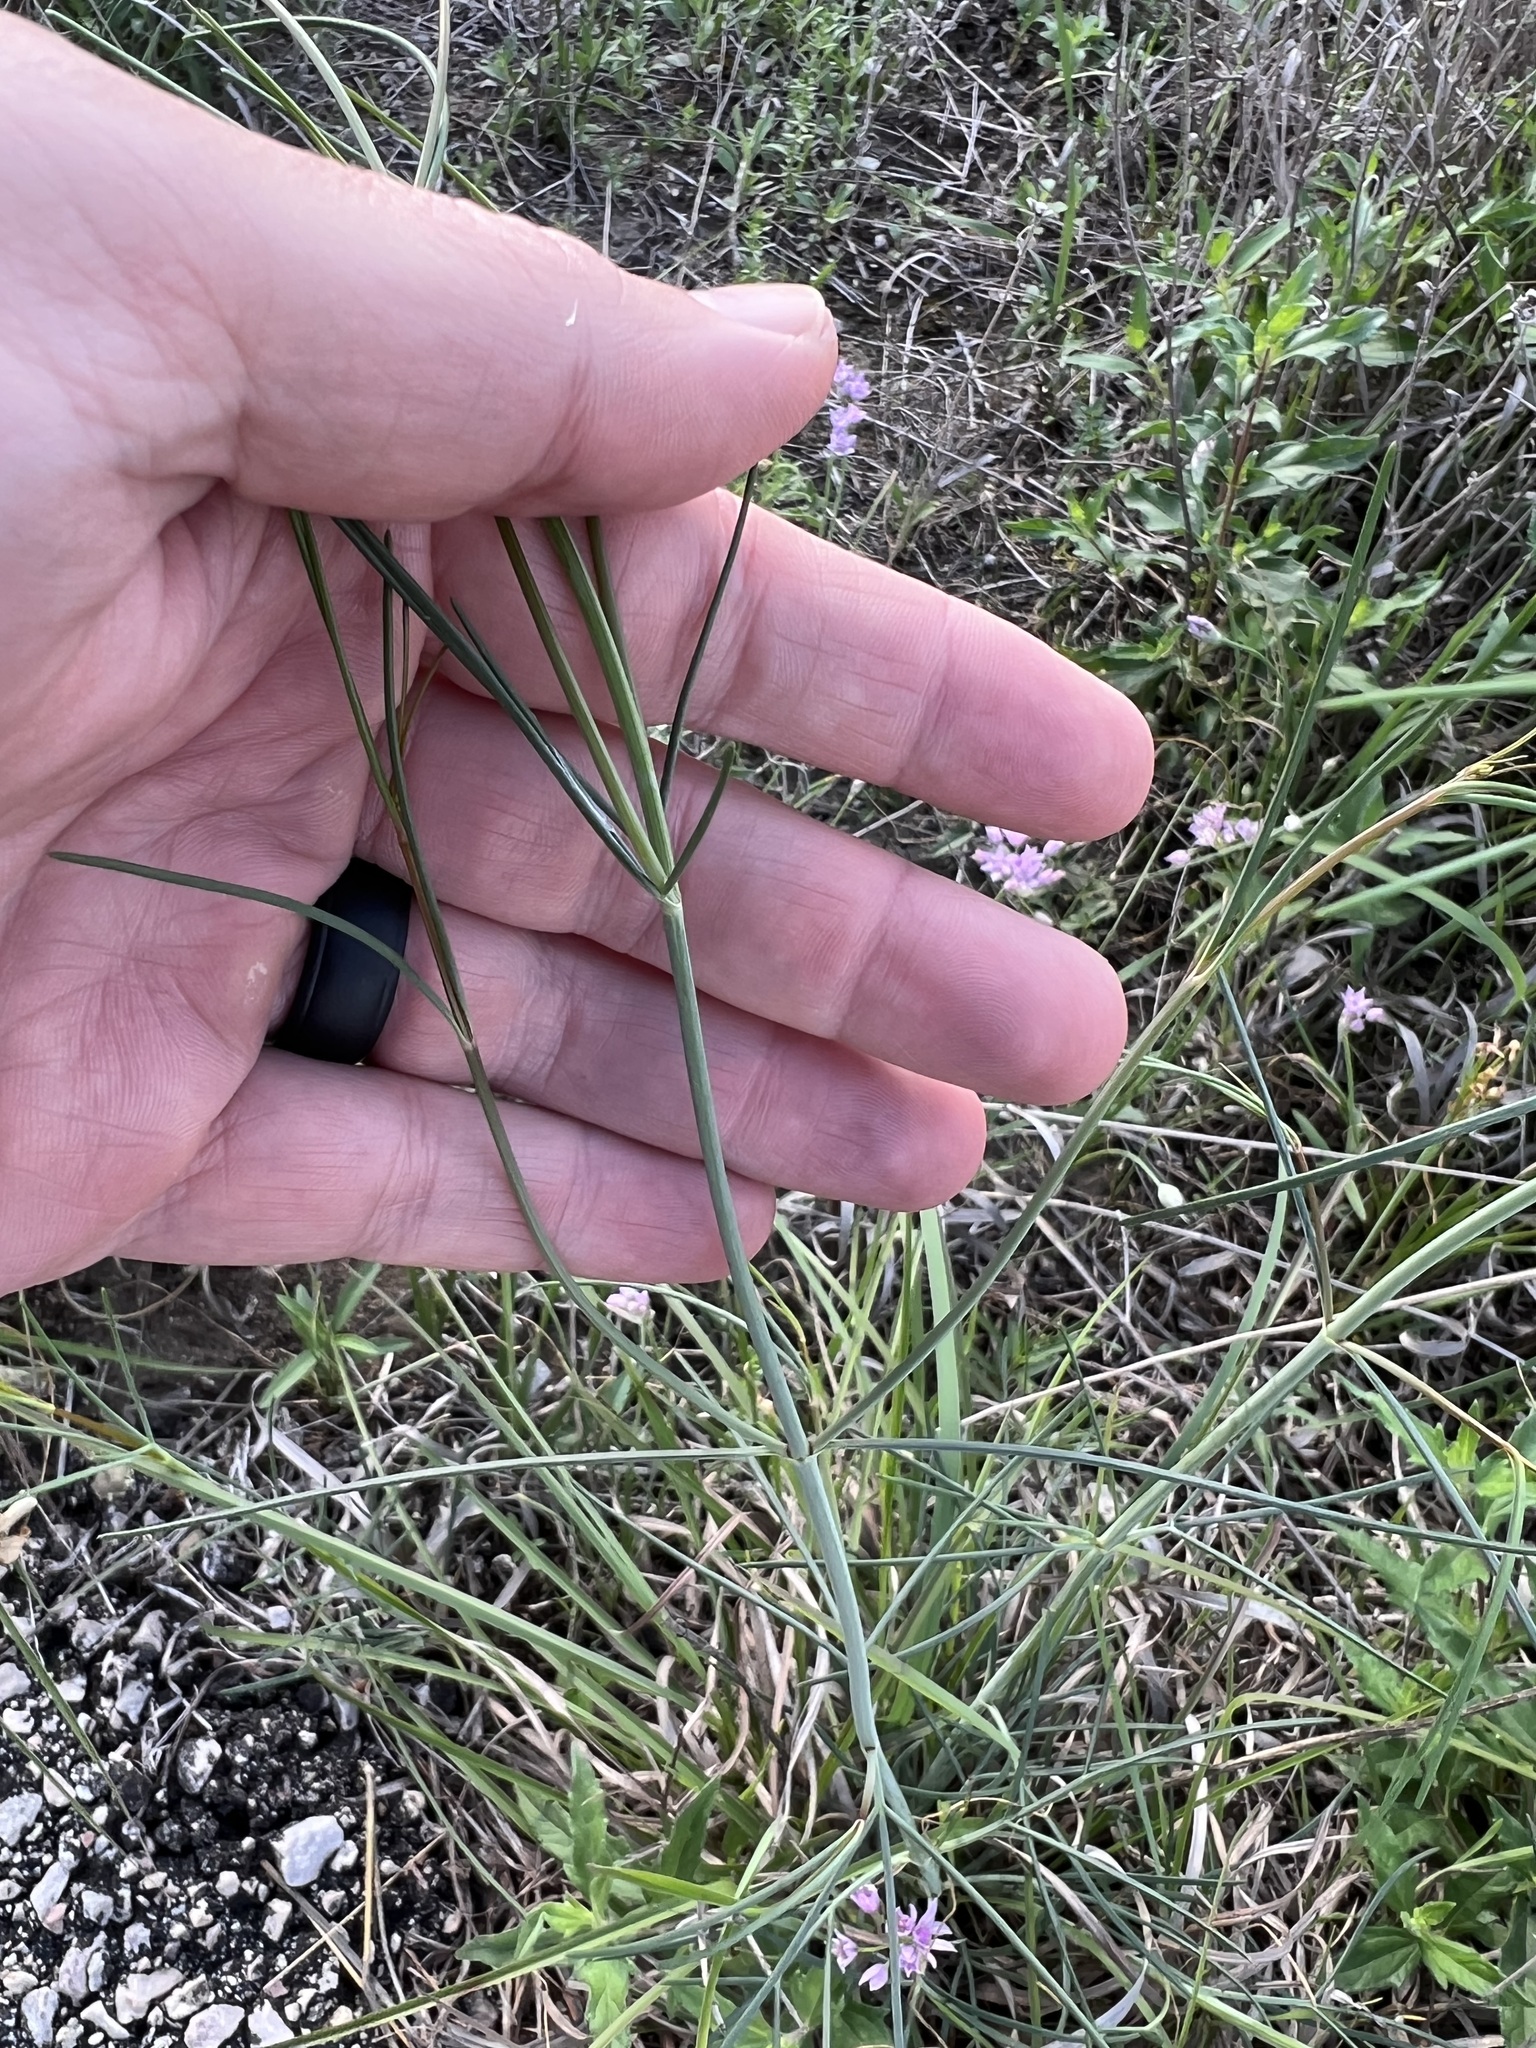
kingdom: Plantae
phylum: Tracheophyta
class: Magnoliopsida
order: Asterales
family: Asteraceae
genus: Thelesperma
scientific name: Thelesperma simplicifolium
